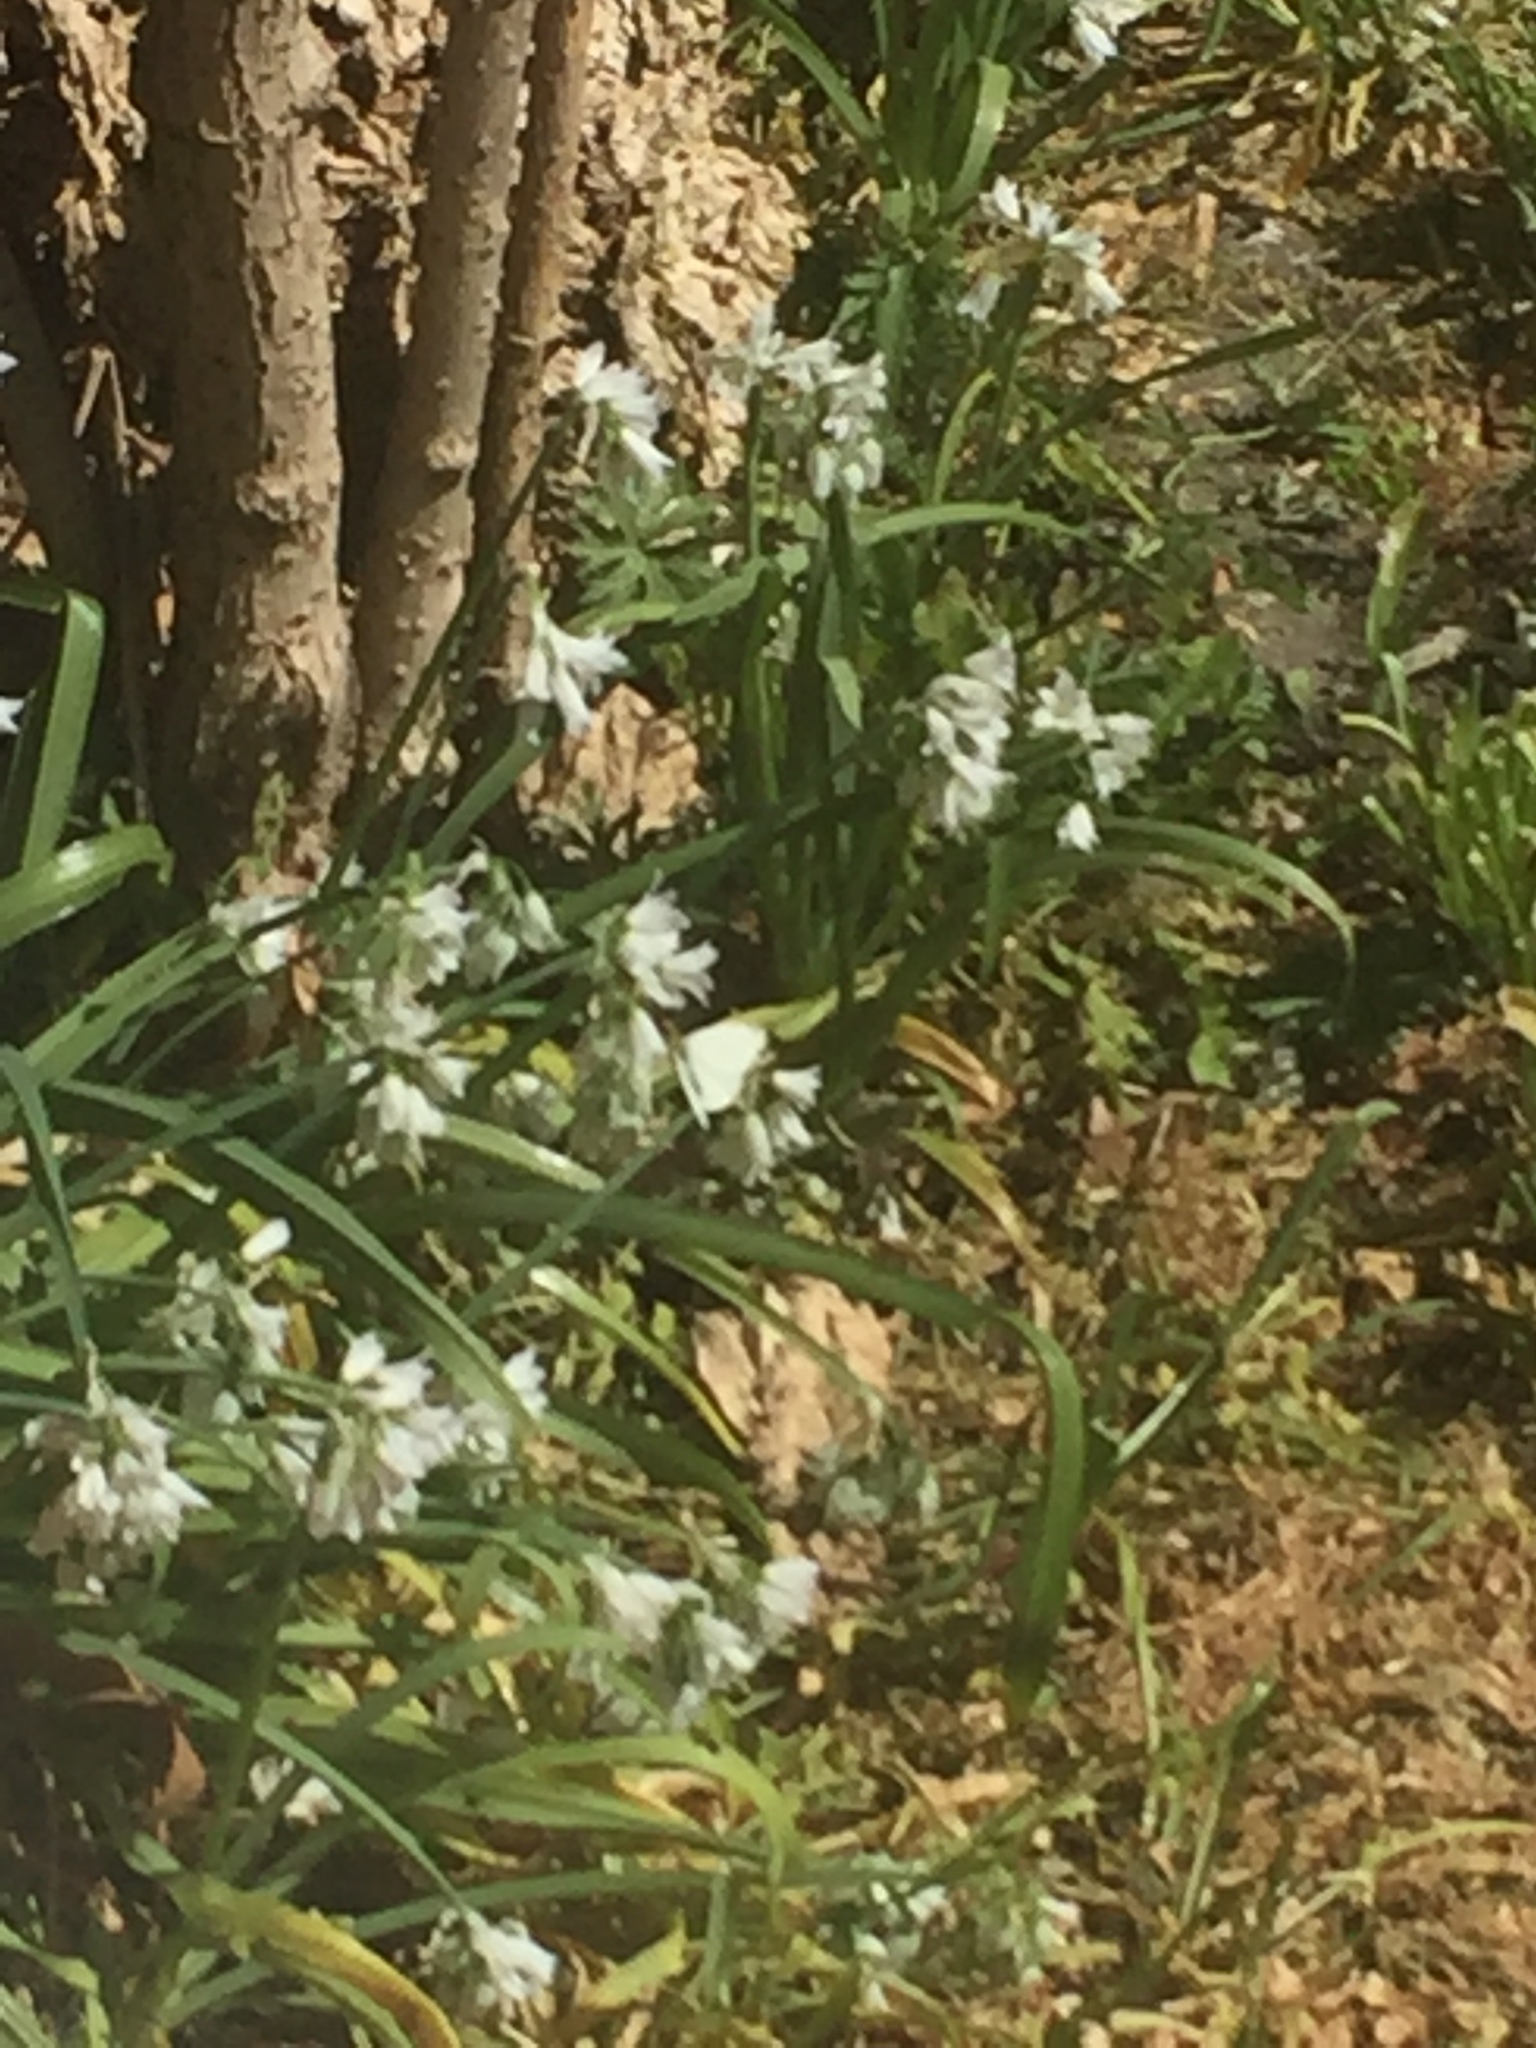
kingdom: Plantae
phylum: Tracheophyta
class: Liliopsida
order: Asparagales
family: Amaryllidaceae
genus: Allium
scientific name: Allium triquetrum
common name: Three-cornered garlic
